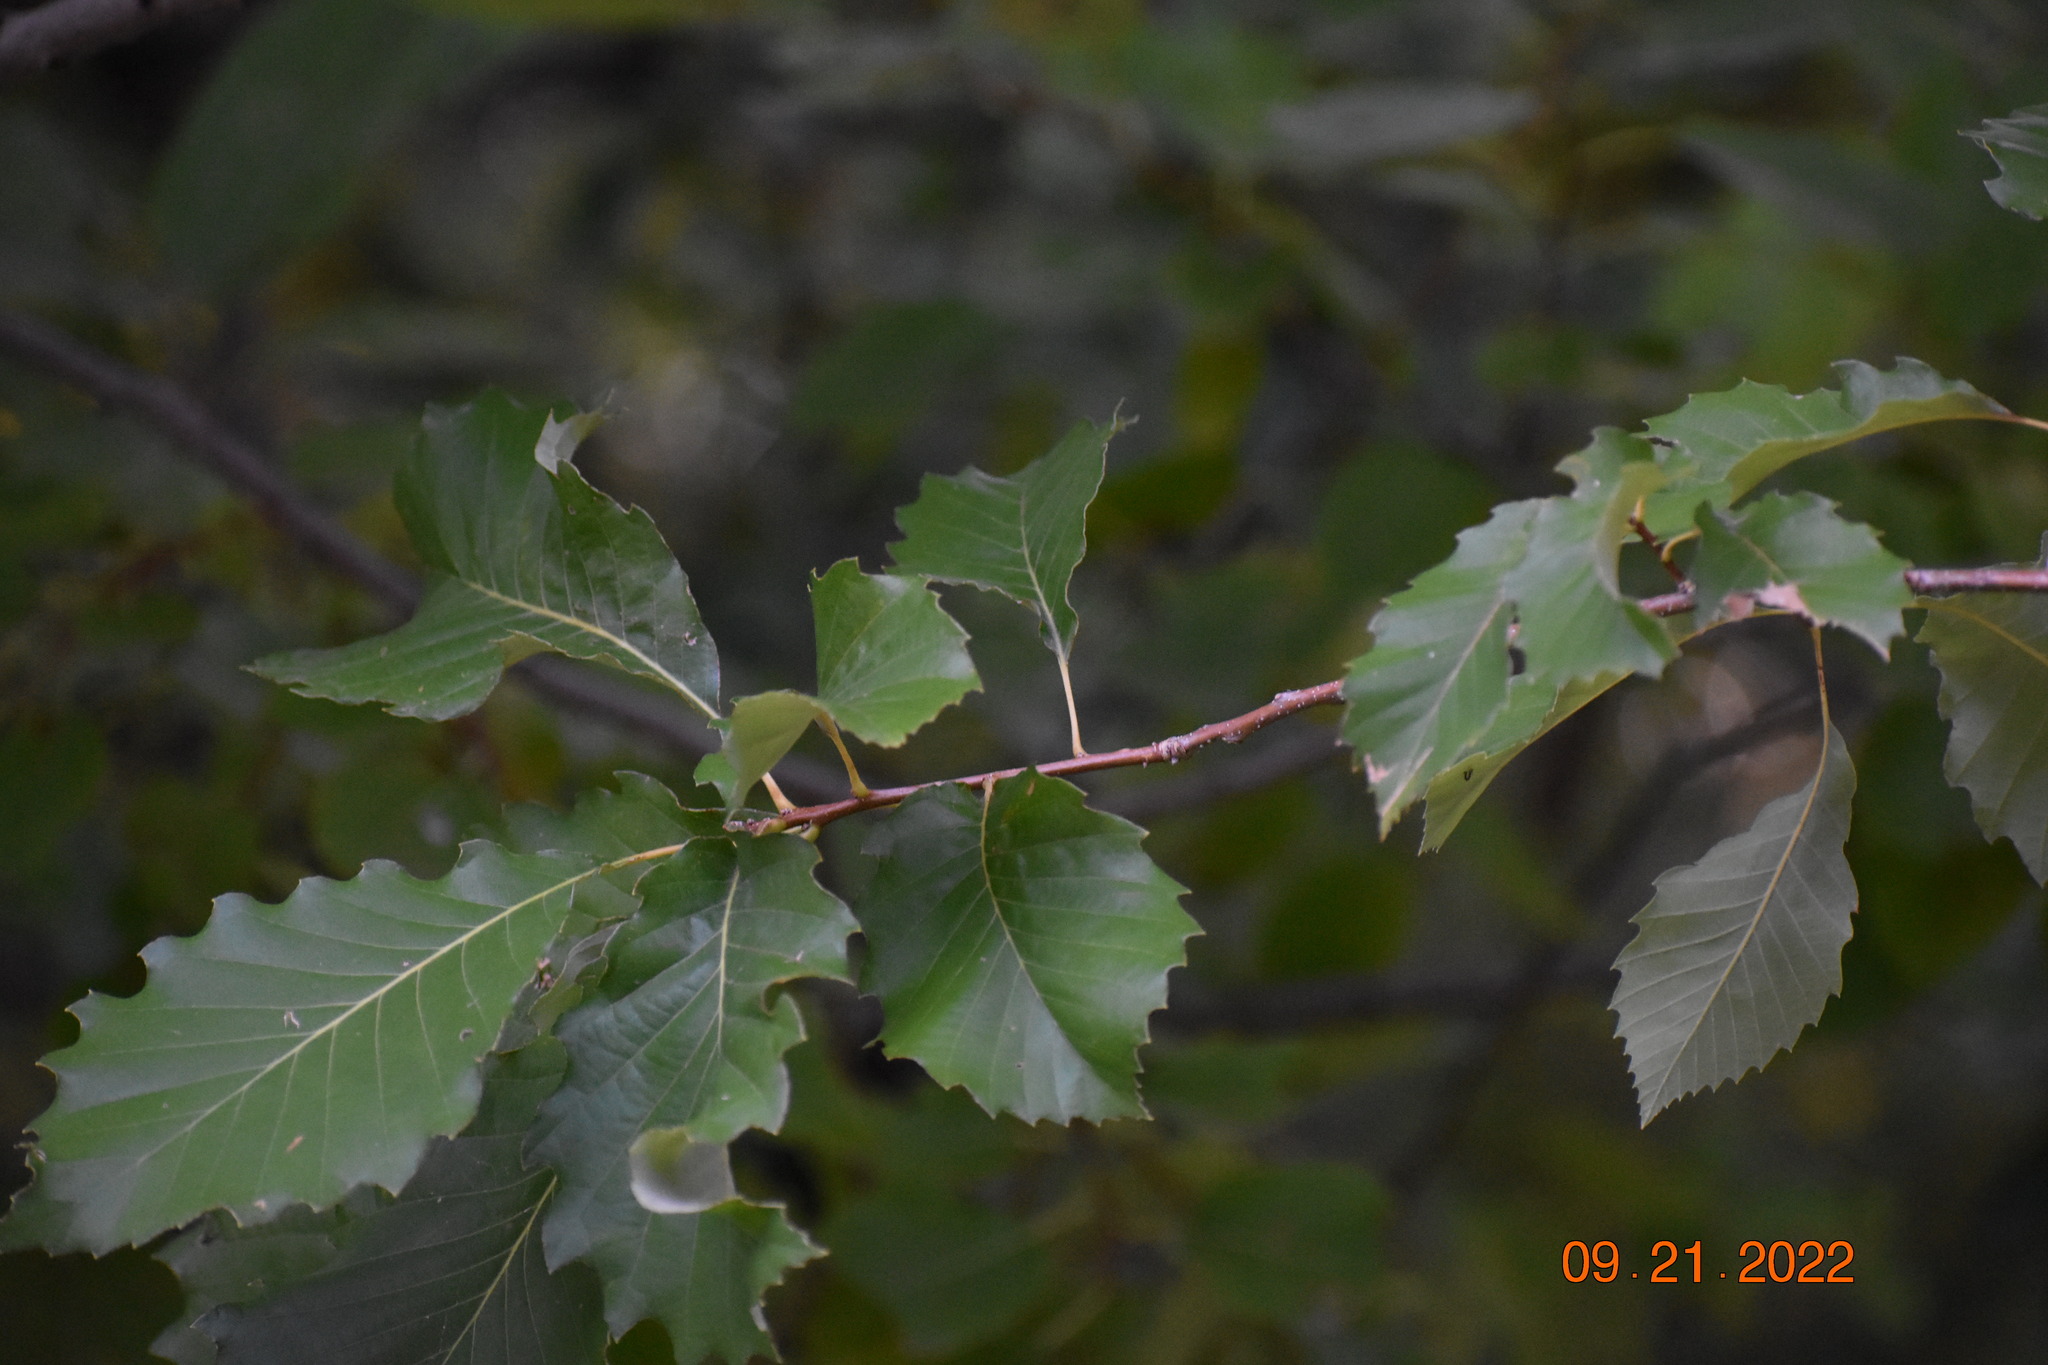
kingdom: Plantae
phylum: Tracheophyta
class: Magnoliopsida
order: Fagales
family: Fagaceae
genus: Quercus
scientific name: Quercus muehlenbergii
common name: Chinkapin oak
